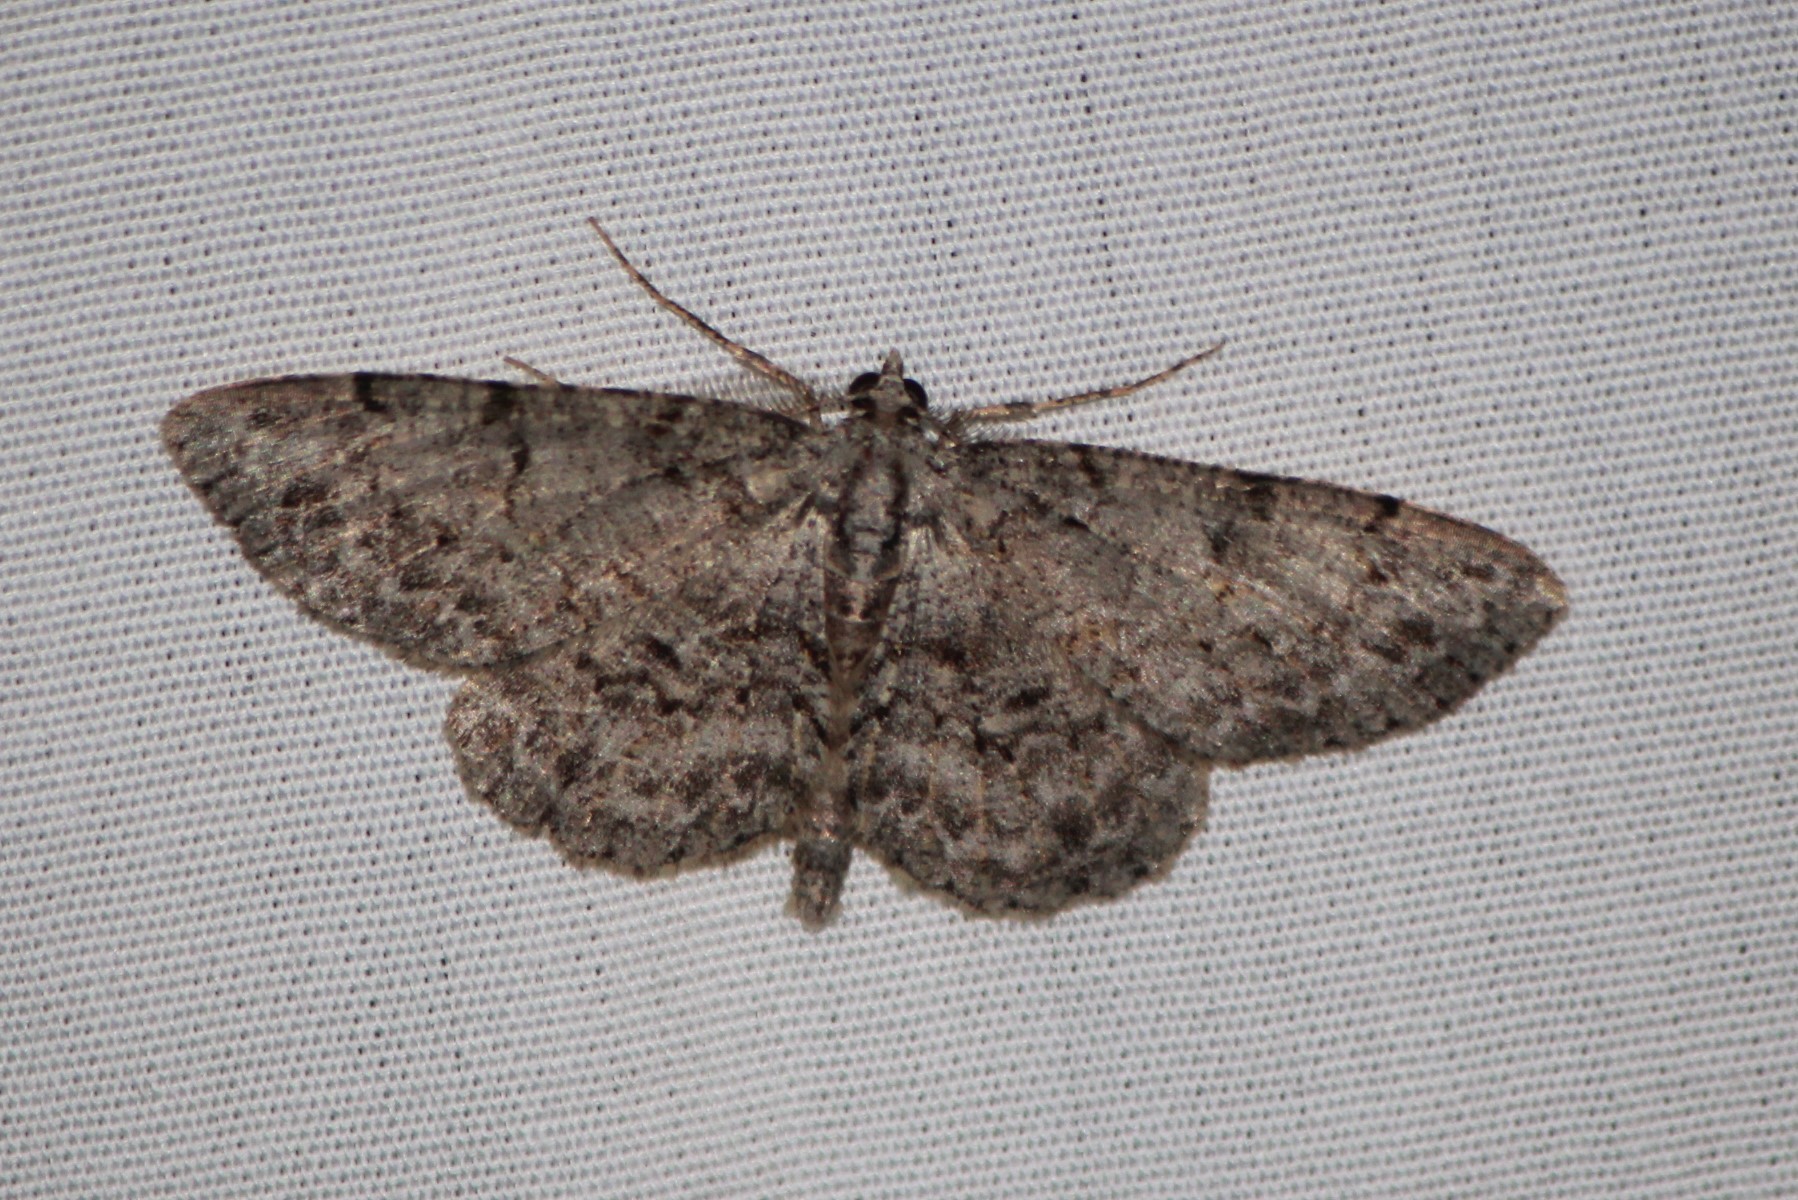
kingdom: Animalia
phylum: Arthropoda
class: Insecta
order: Lepidoptera
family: Geometridae
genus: Protoboarmia
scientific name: Protoboarmia porcelaria
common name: Porcelain gray
